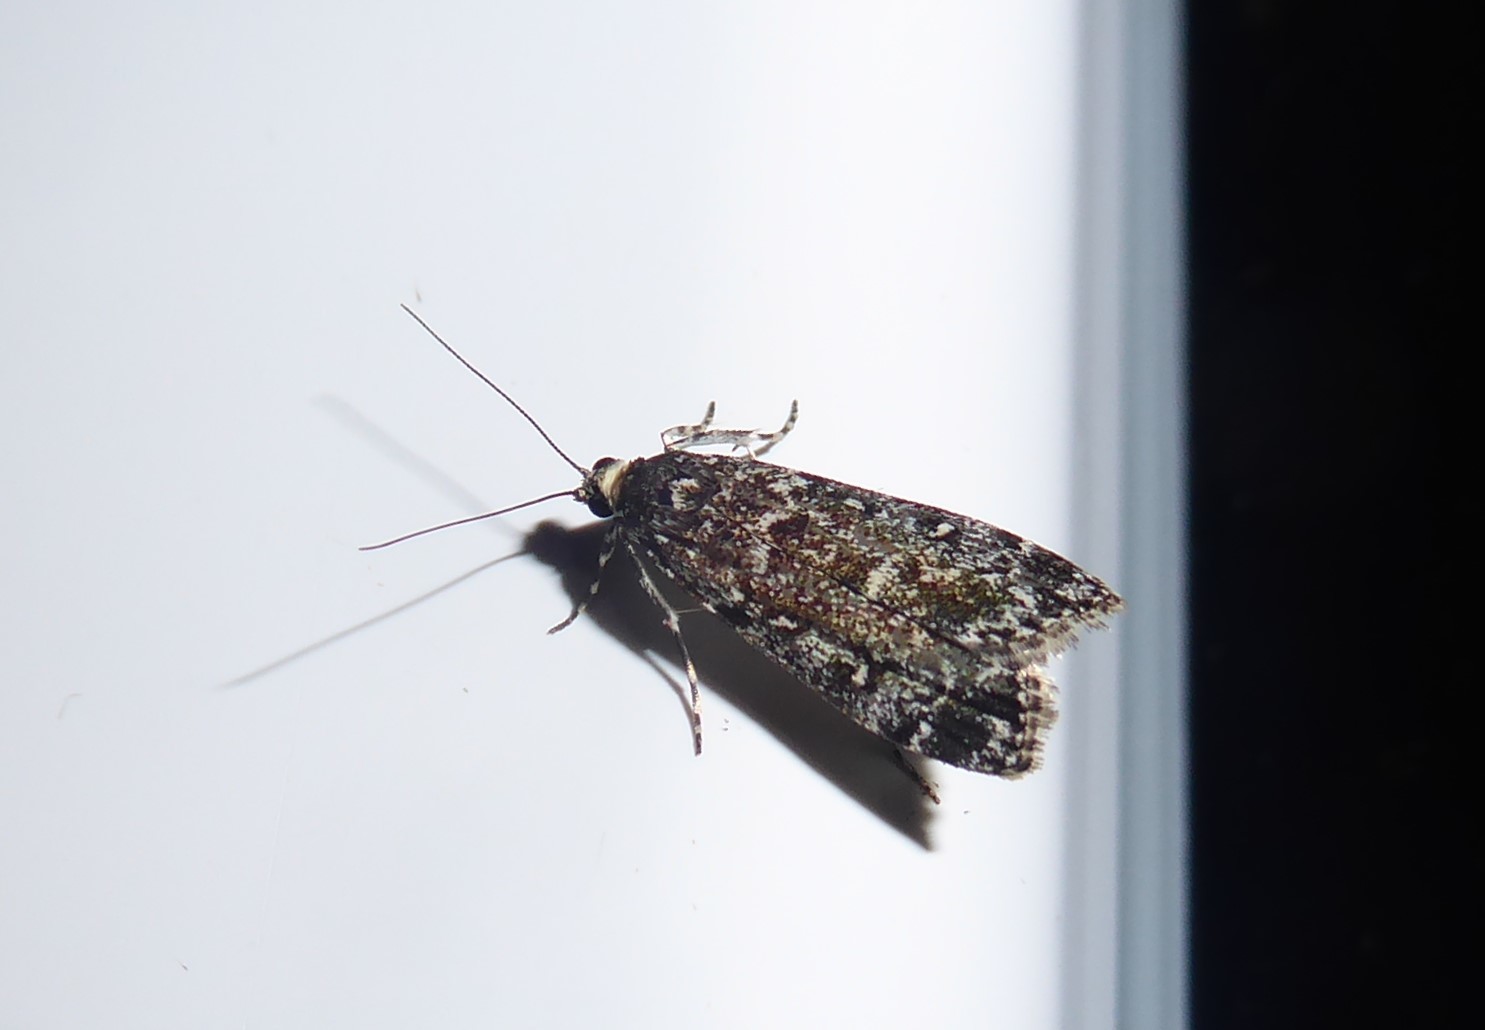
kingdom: Animalia
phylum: Arthropoda
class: Insecta
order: Lepidoptera
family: Crambidae
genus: Eudonia
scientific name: Eudonia philerga
